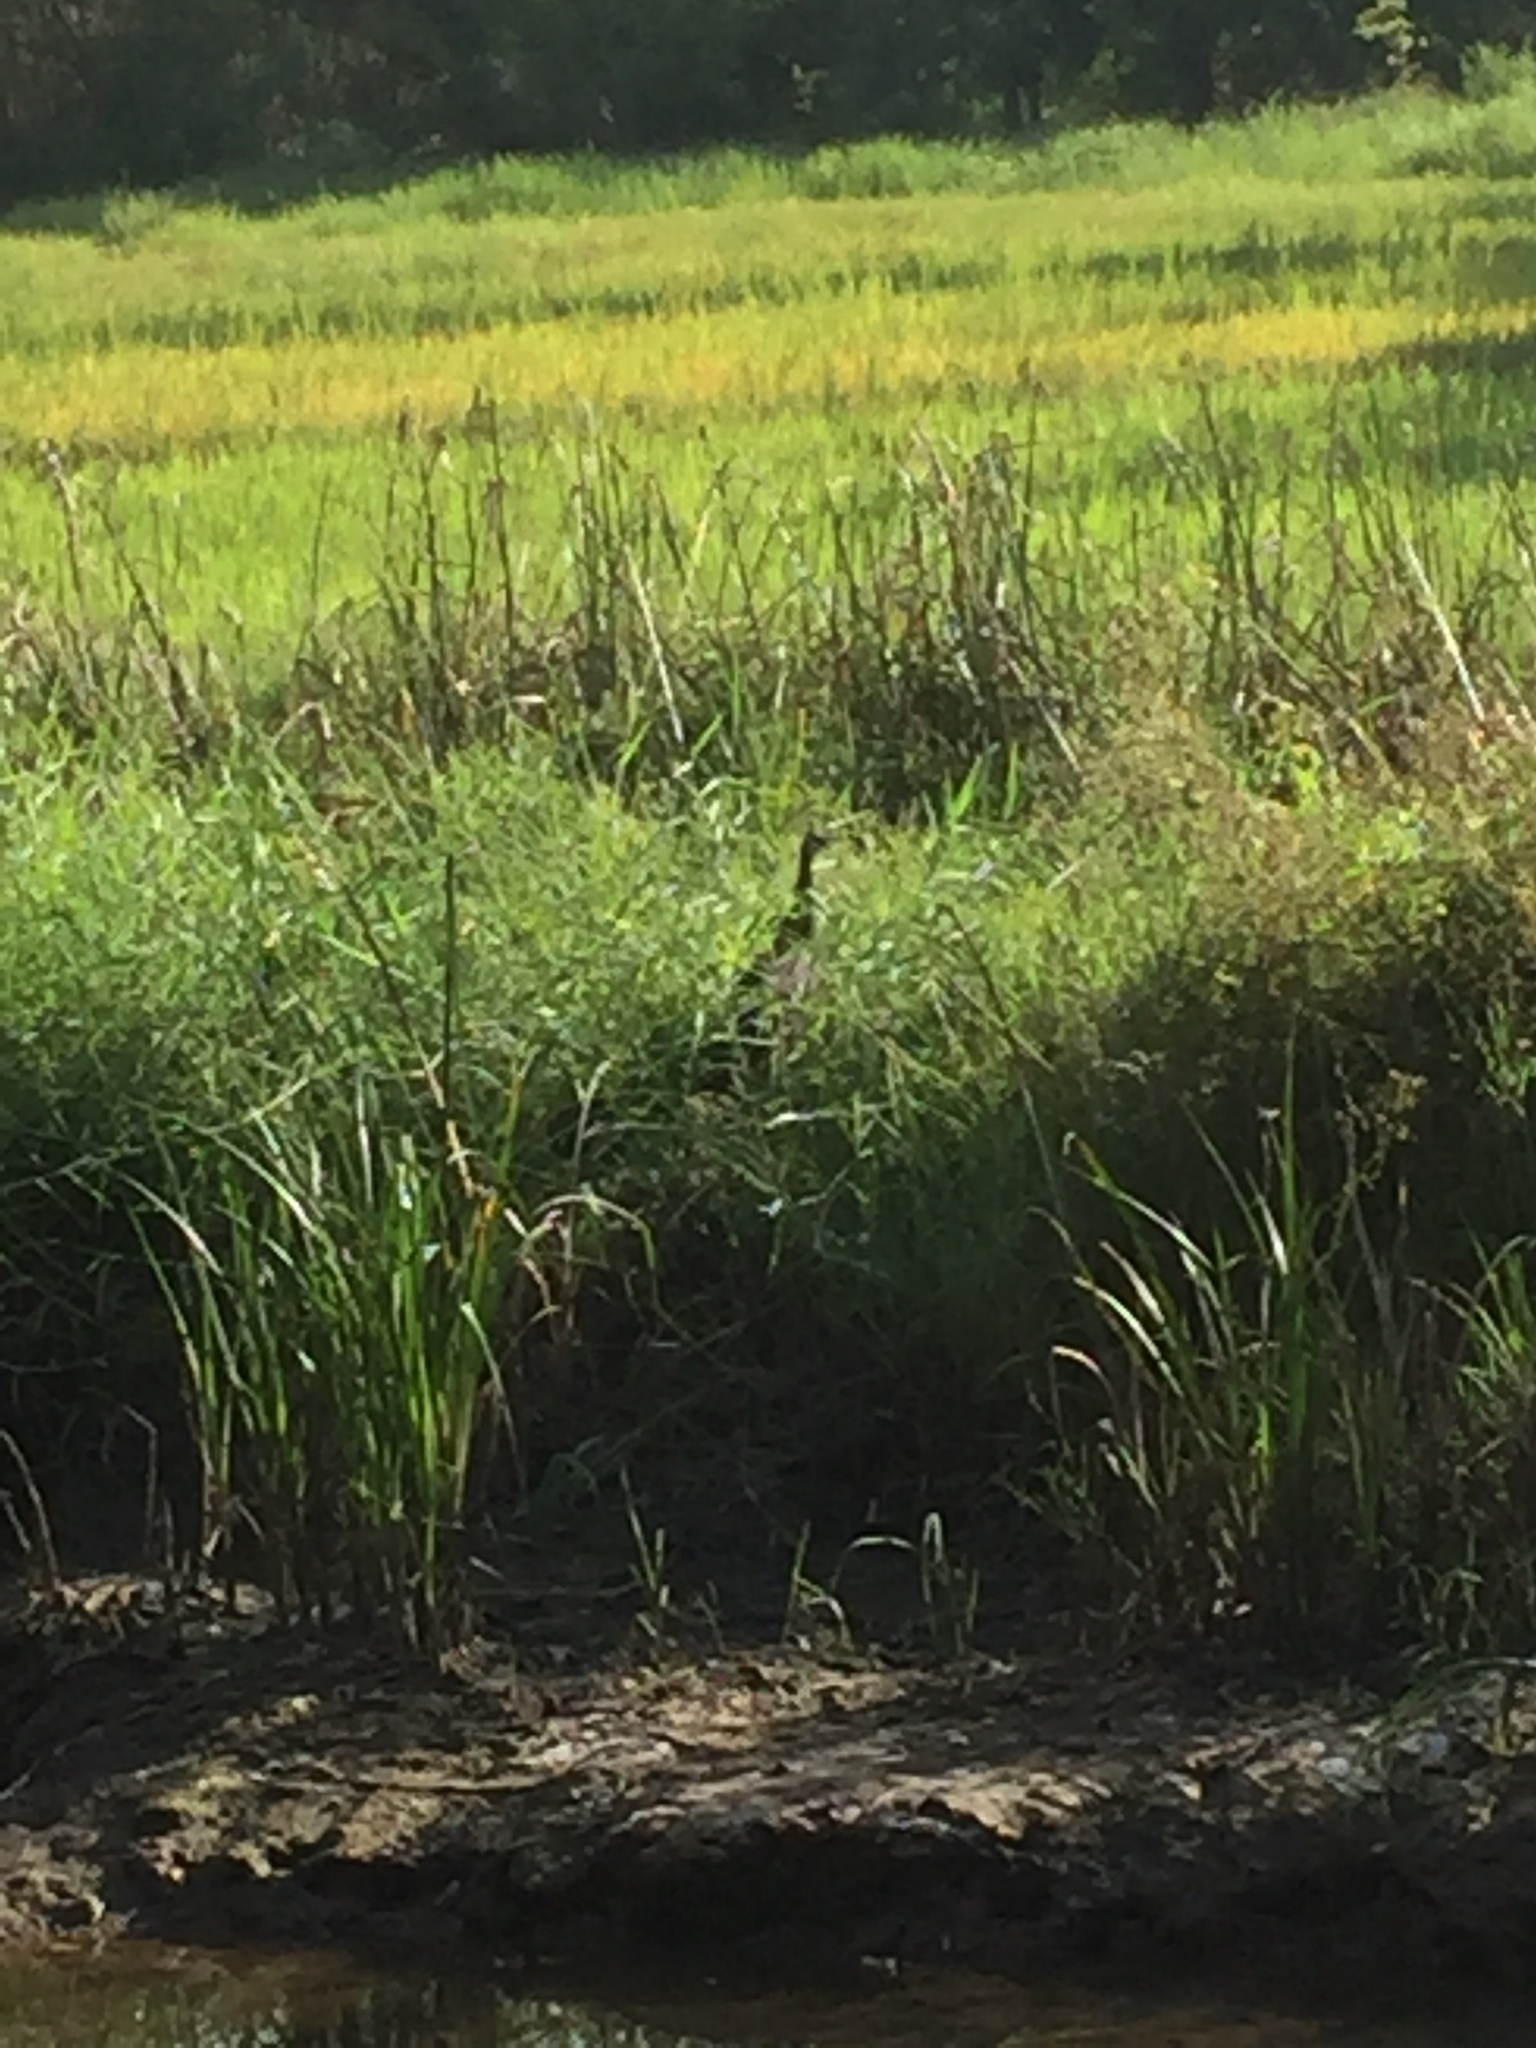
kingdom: Animalia
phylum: Chordata
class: Aves
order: Galliformes
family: Phasianidae
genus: Pavo
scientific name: Pavo cristatus
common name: Indian peafowl
